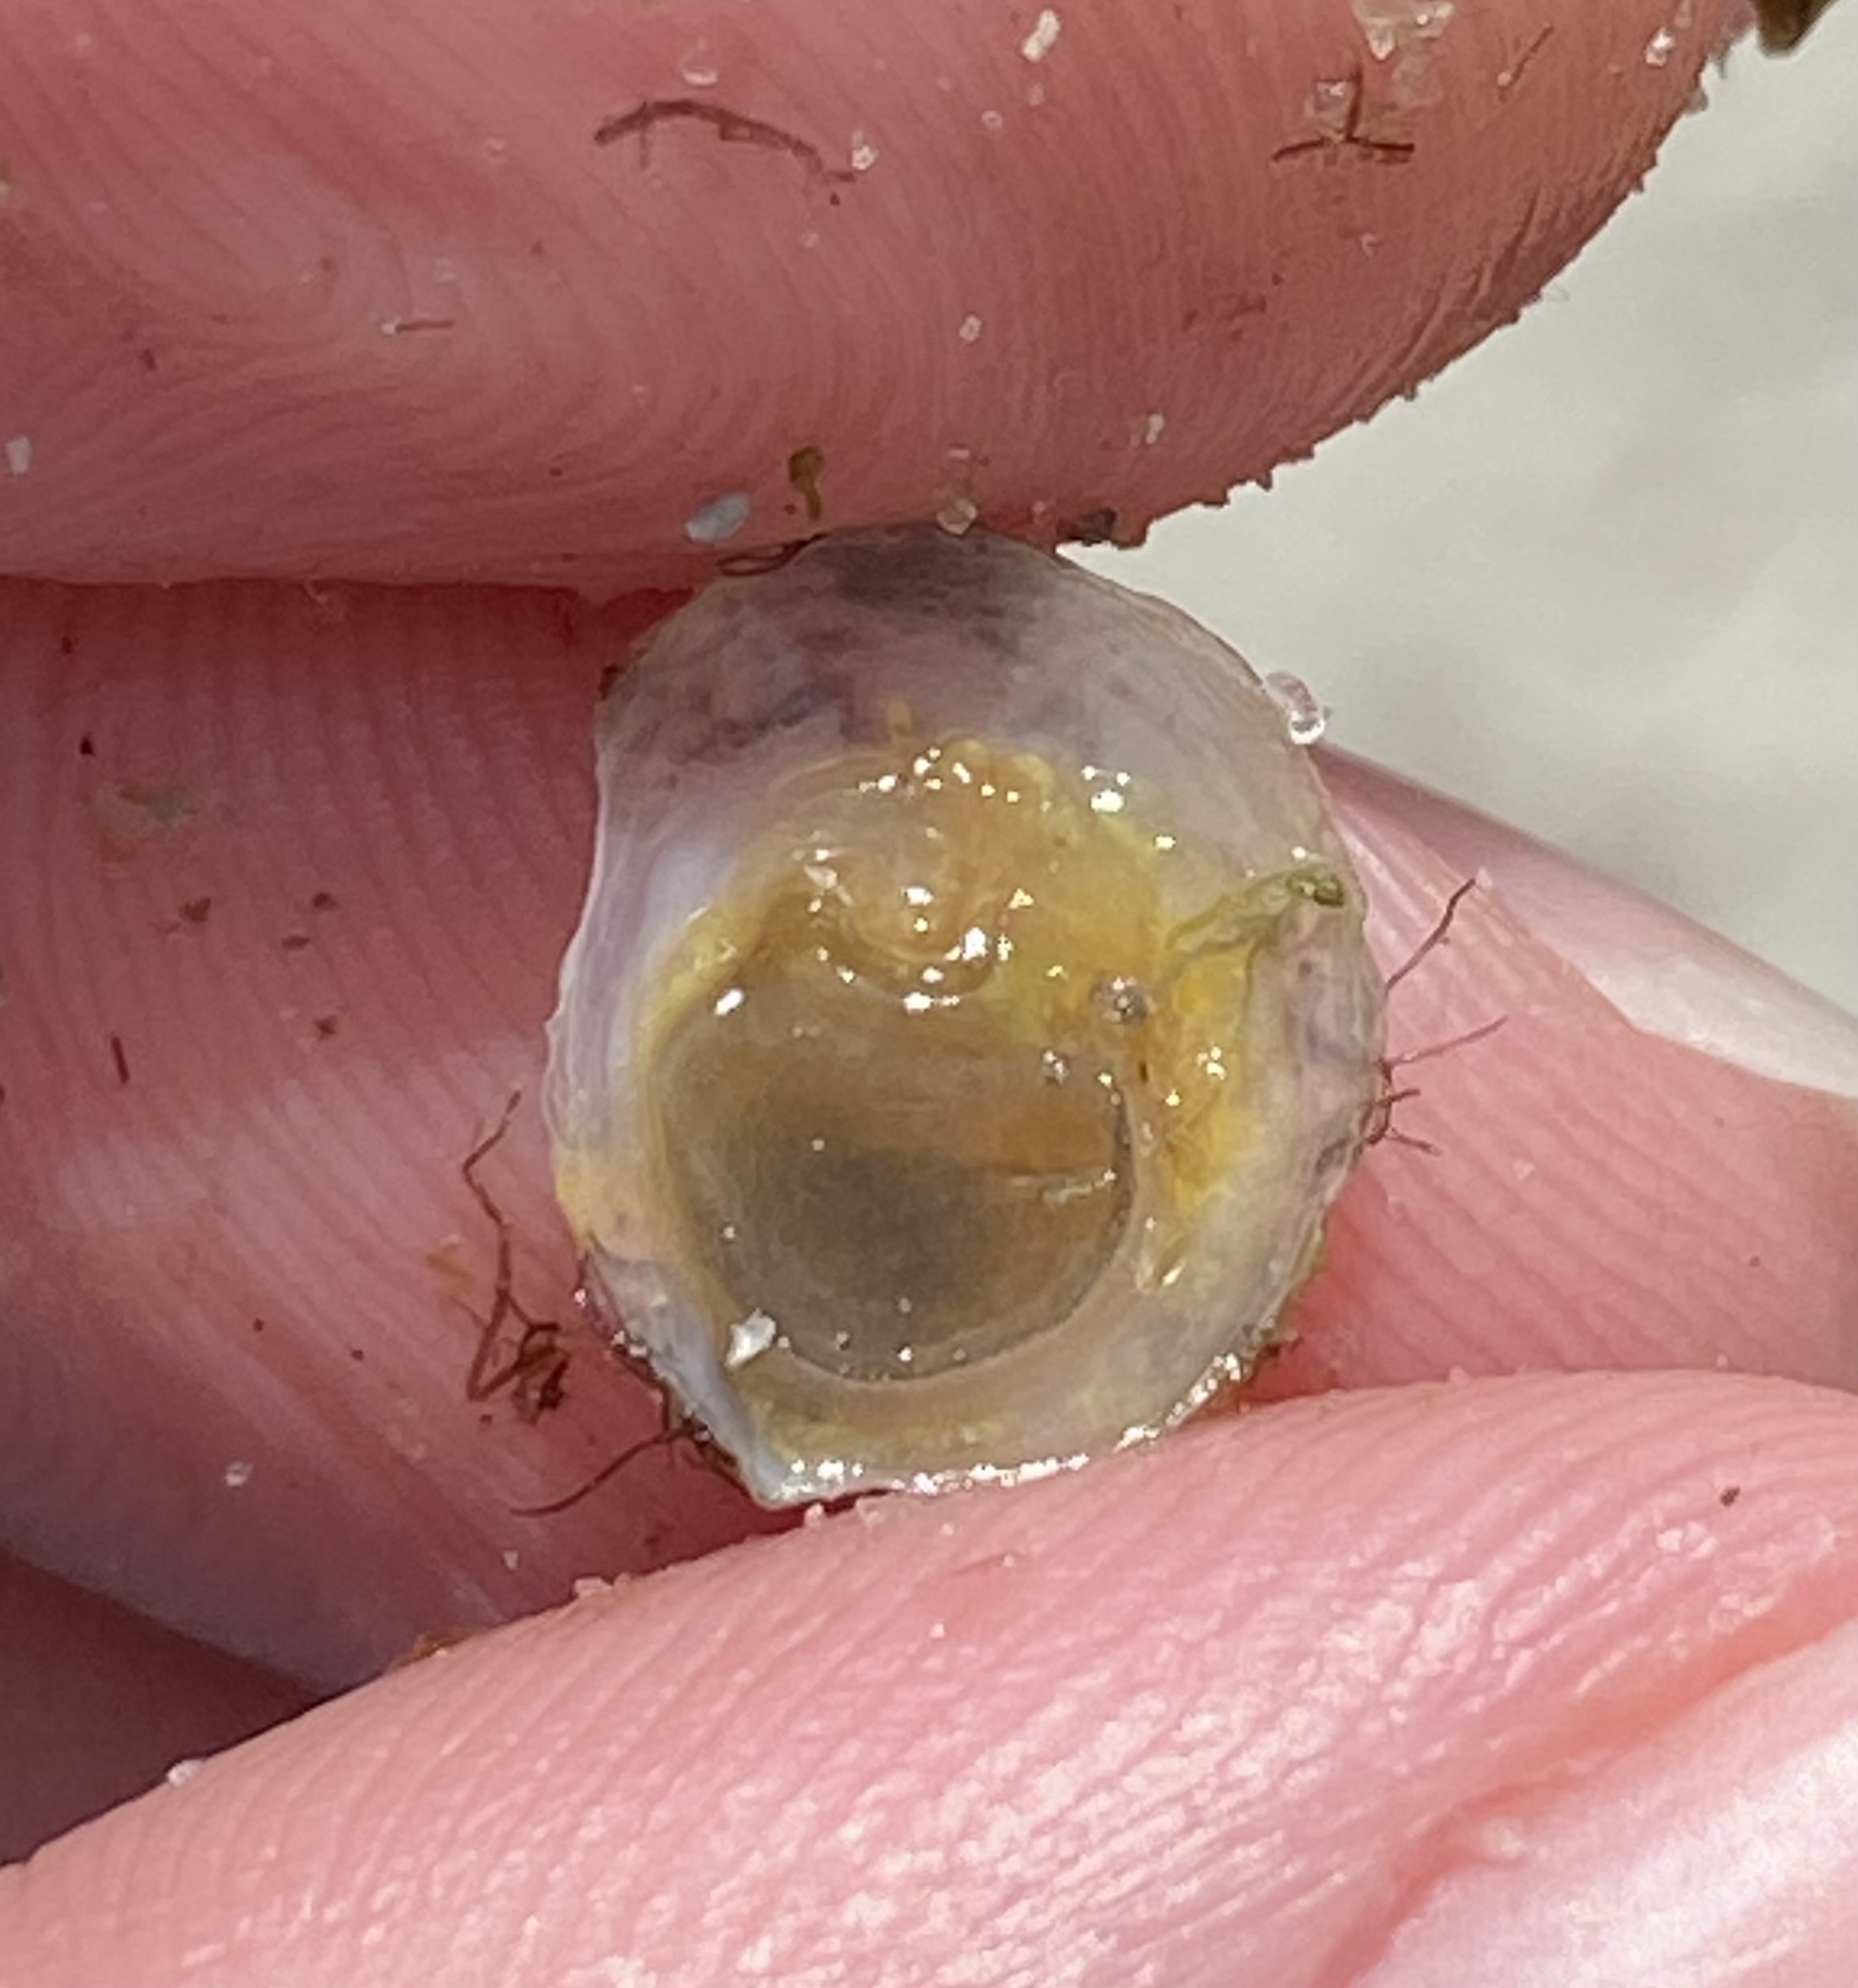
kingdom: Animalia
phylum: Mollusca
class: Gastropoda
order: Littorinimorpha
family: Calyptraeidae
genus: Crepidula
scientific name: Crepidula atrasolea
